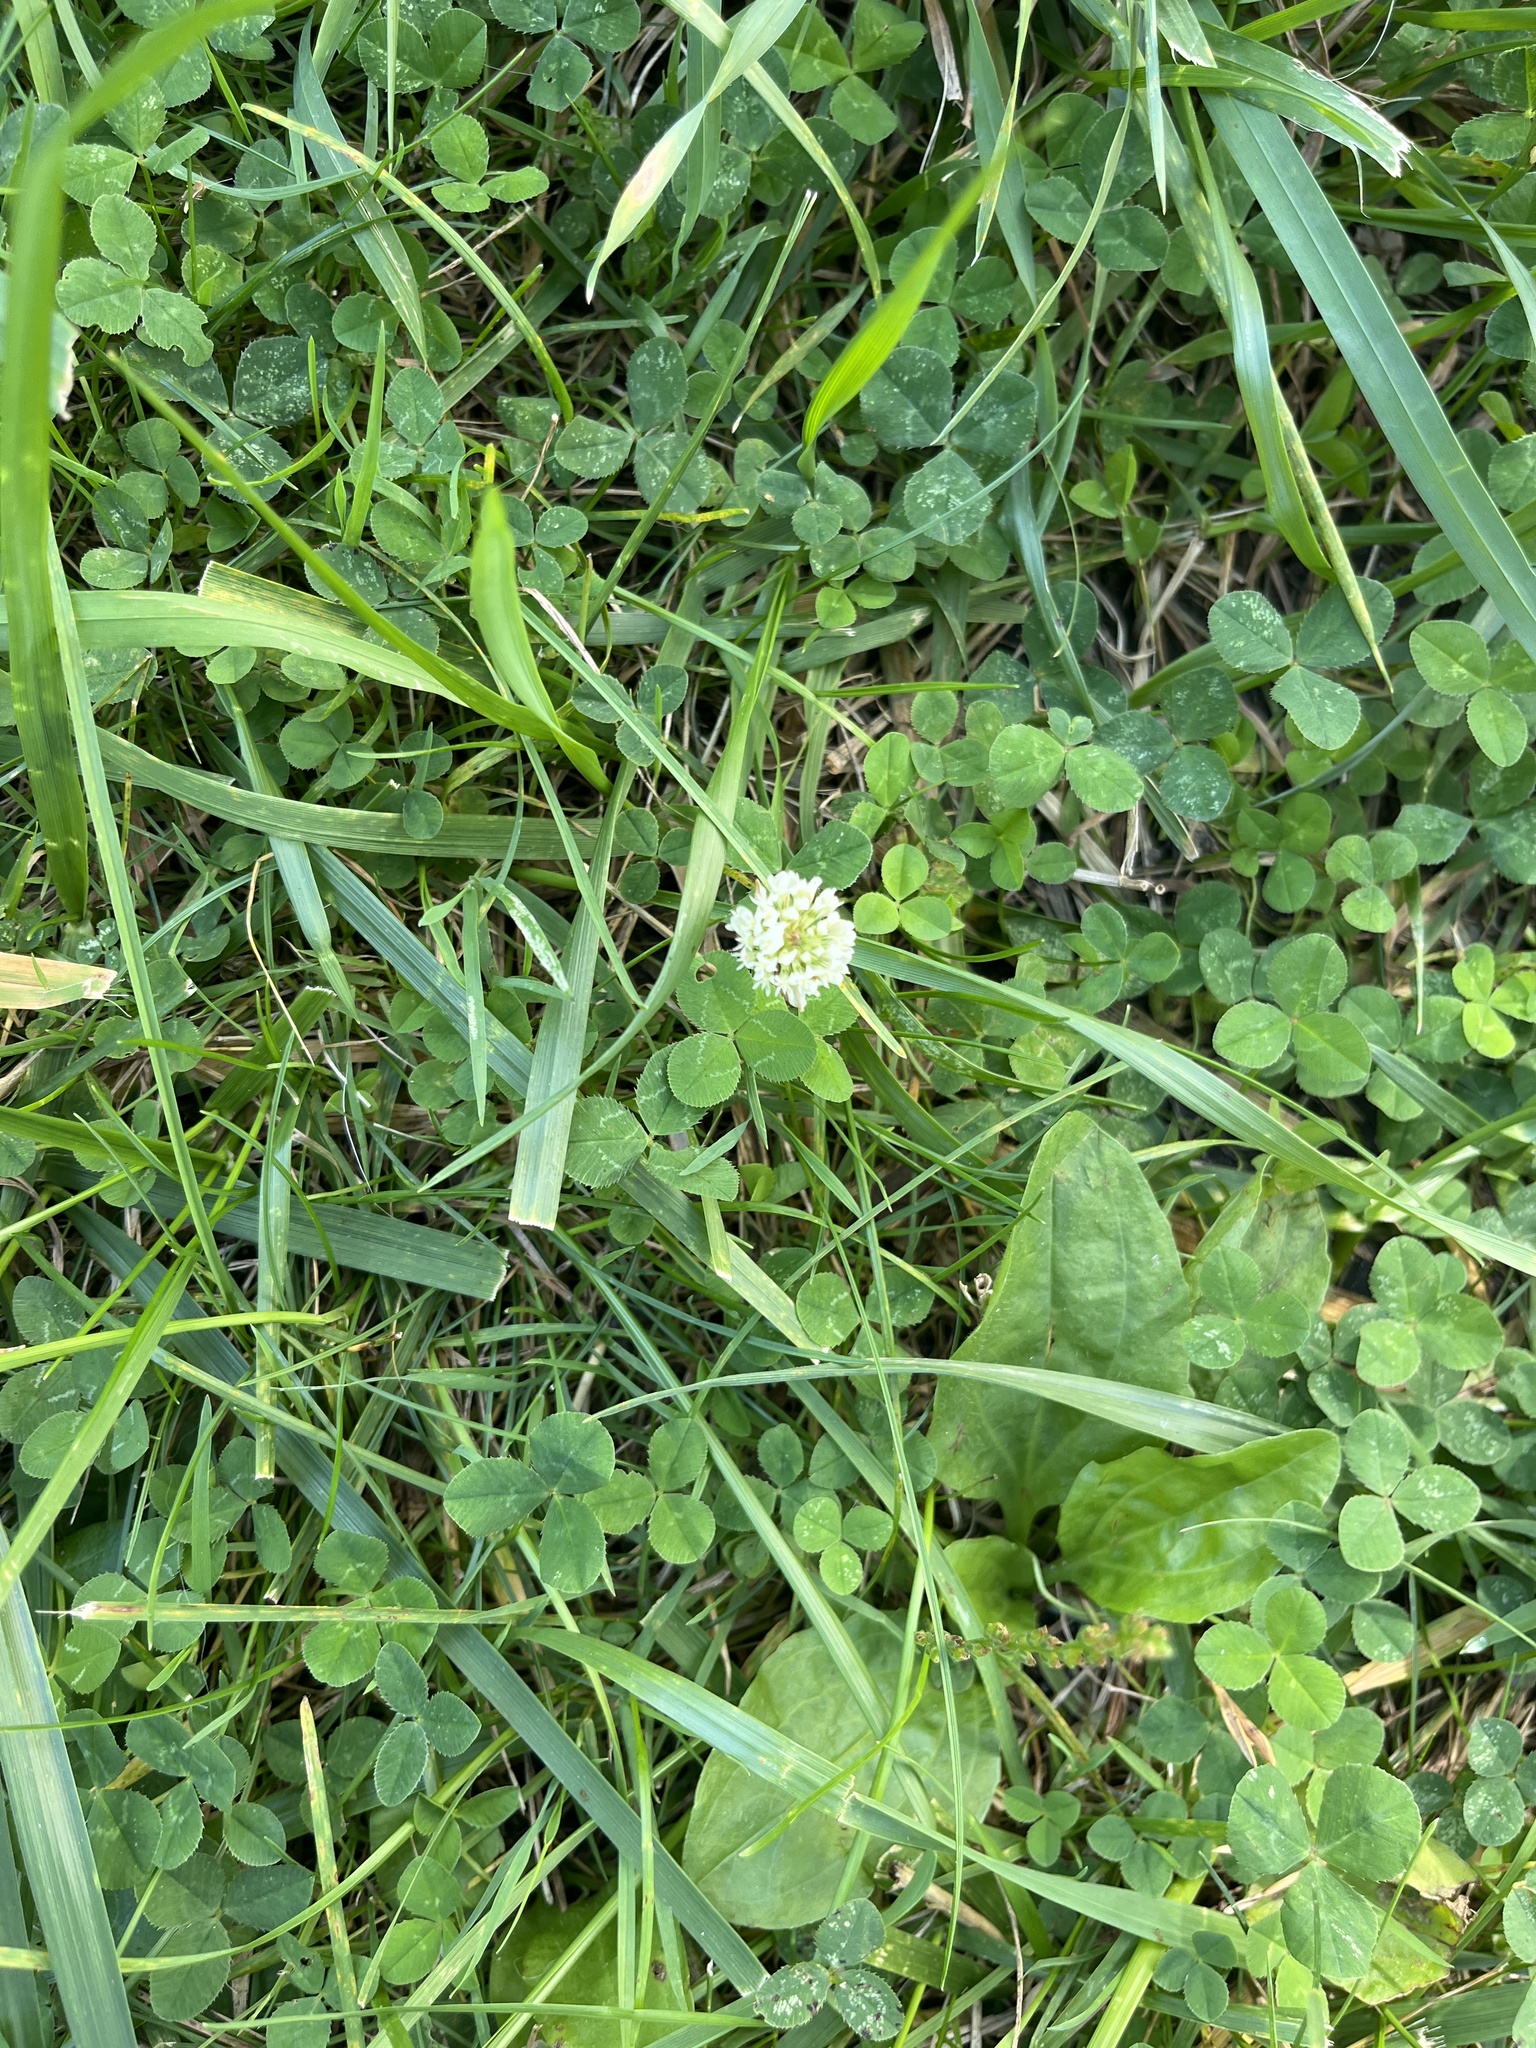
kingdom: Plantae
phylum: Tracheophyta
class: Magnoliopsida
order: Fabales
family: Fabaceae
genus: Trifolium
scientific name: Trifolium repens
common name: White clover
